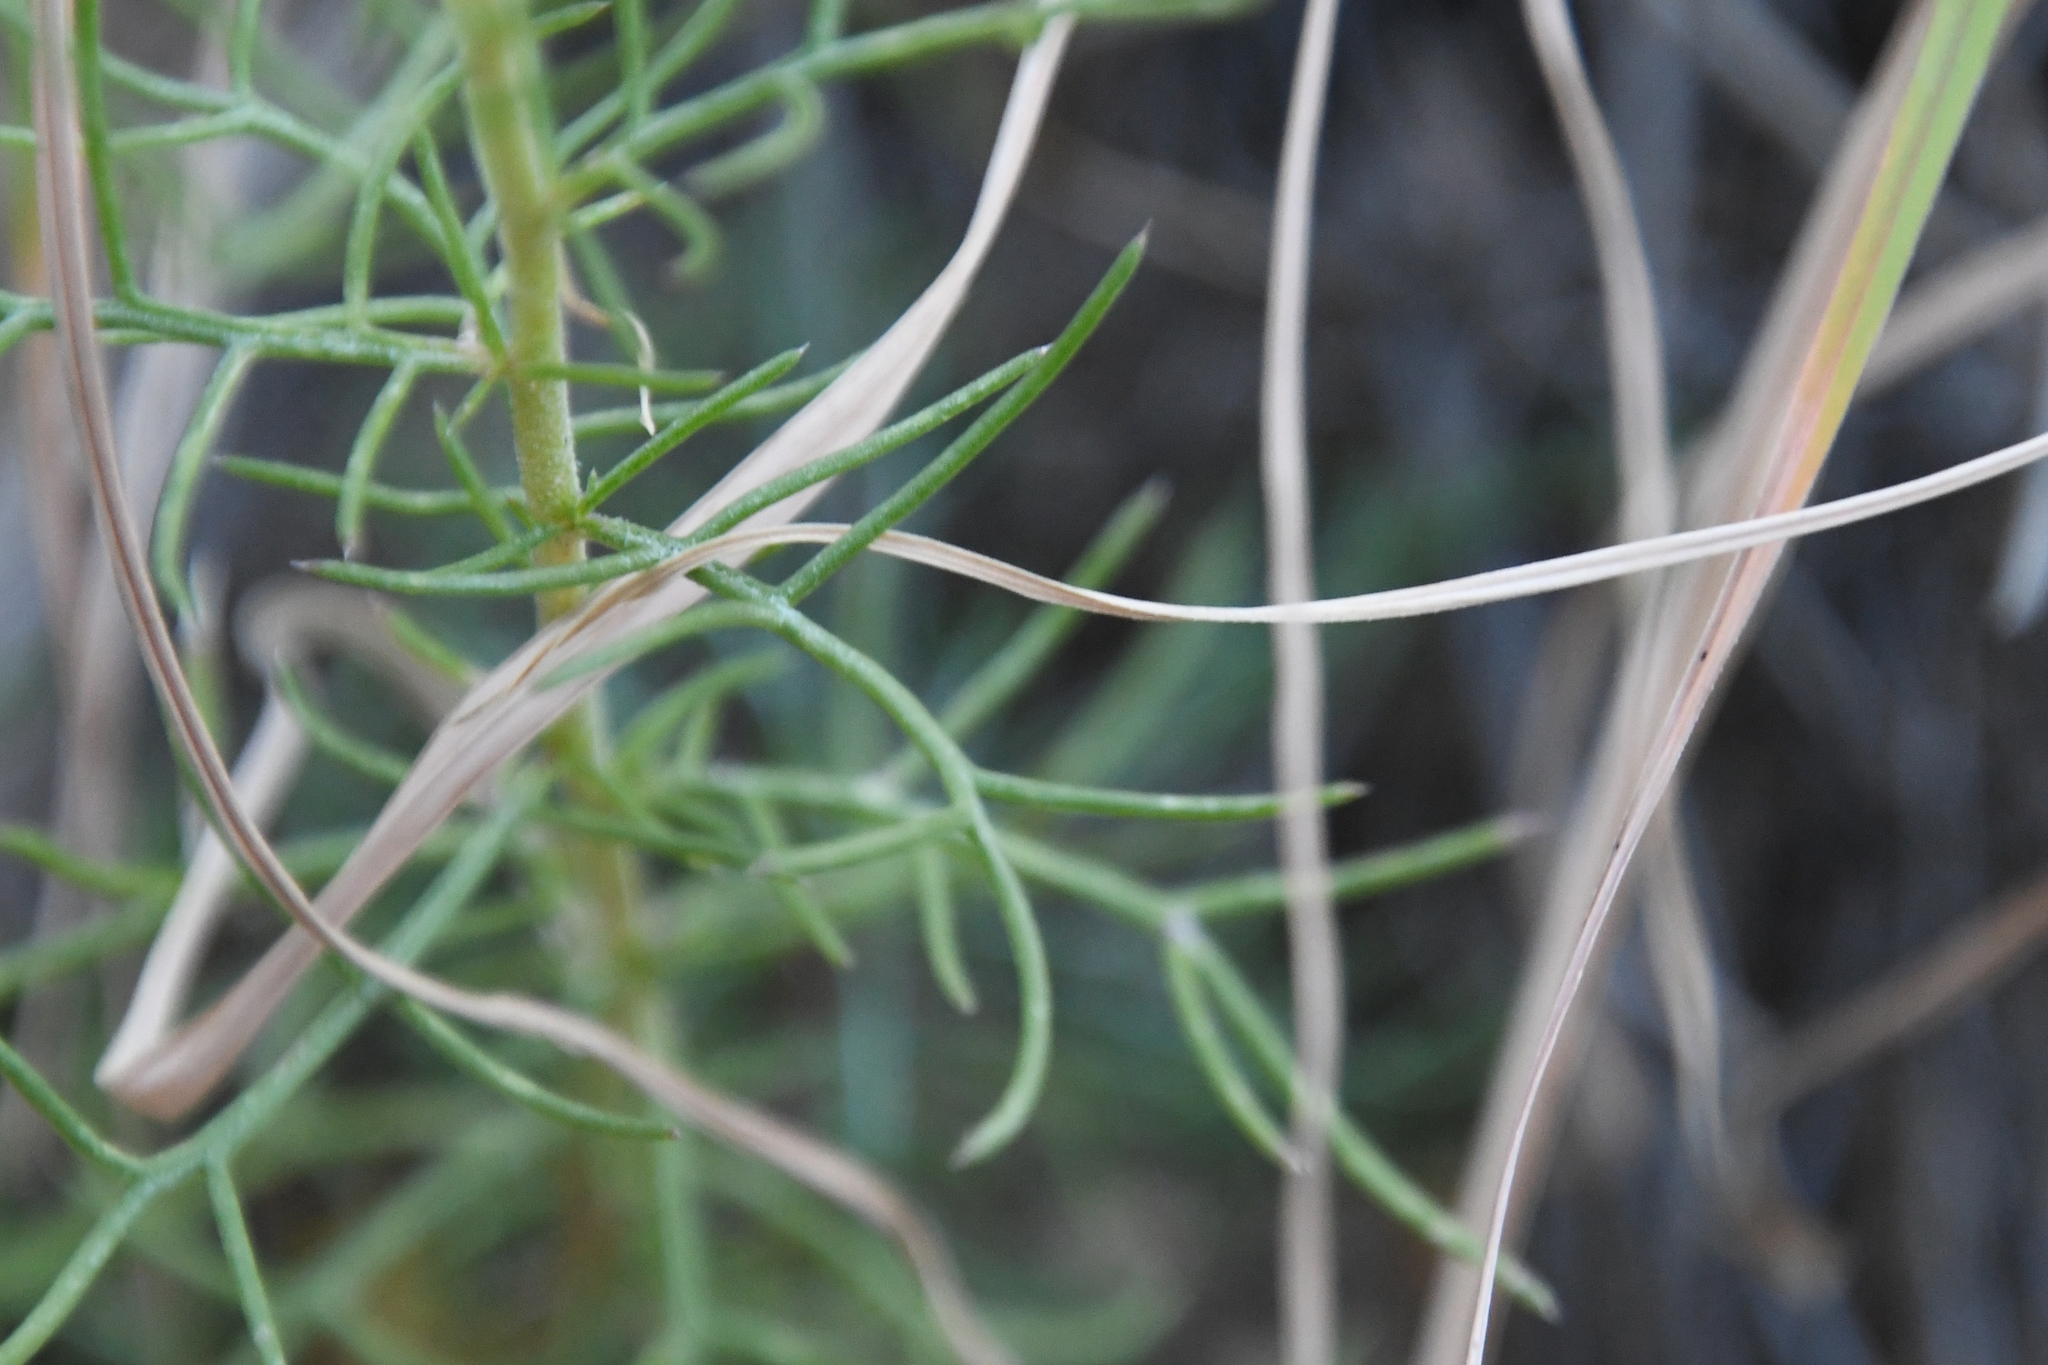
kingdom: Plantae
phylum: Tracheophyta
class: Magnoliopsida
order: Ericales
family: Polemoniaceae
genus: Ipomopsis
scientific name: Ipomopsis thurberi
